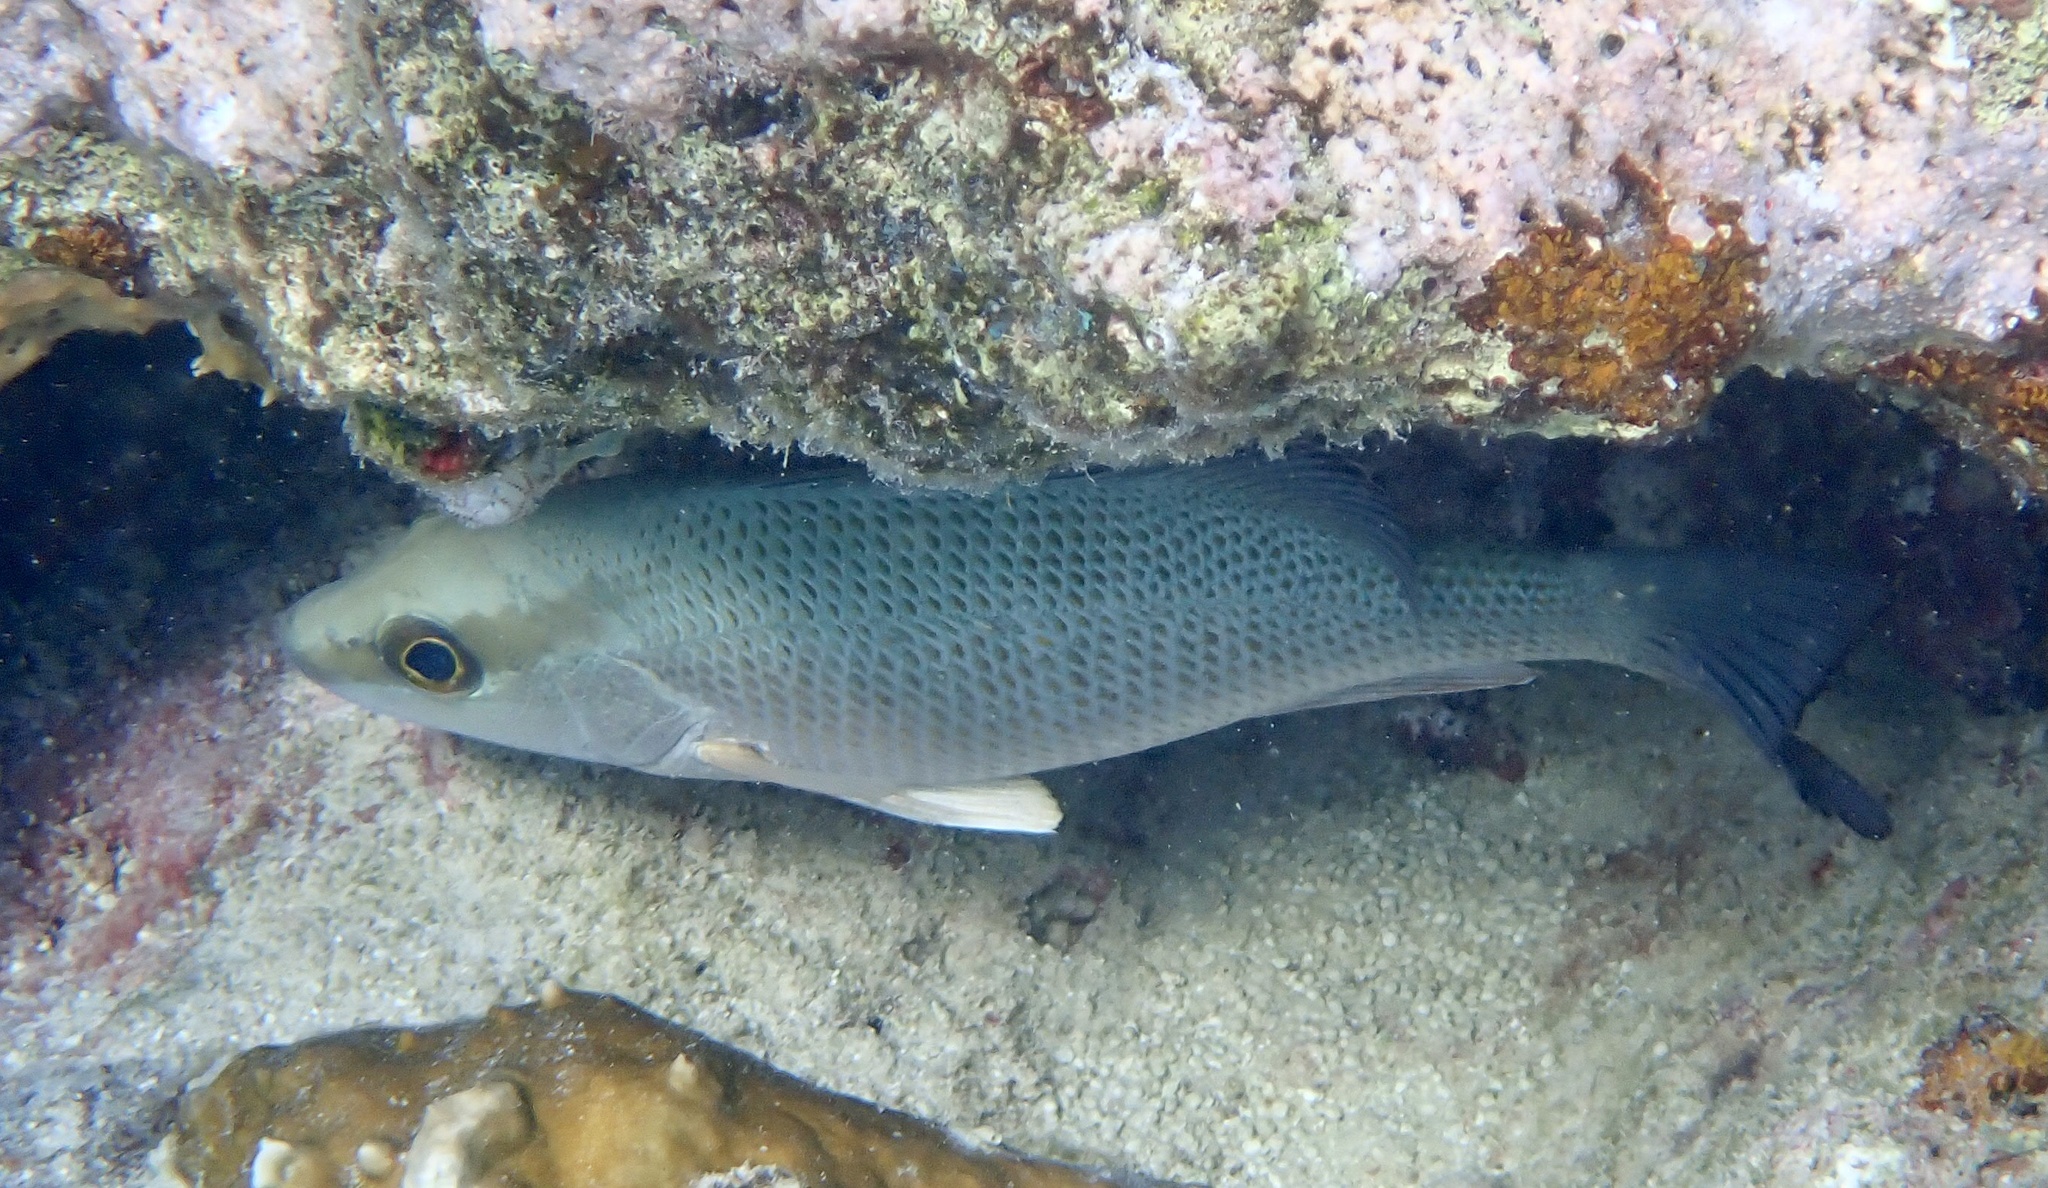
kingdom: Animalia
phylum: Chordata
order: Perciformes
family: Lutjanidae
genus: Lutjanus
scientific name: Lutjanus griseus
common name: Gray snapper
